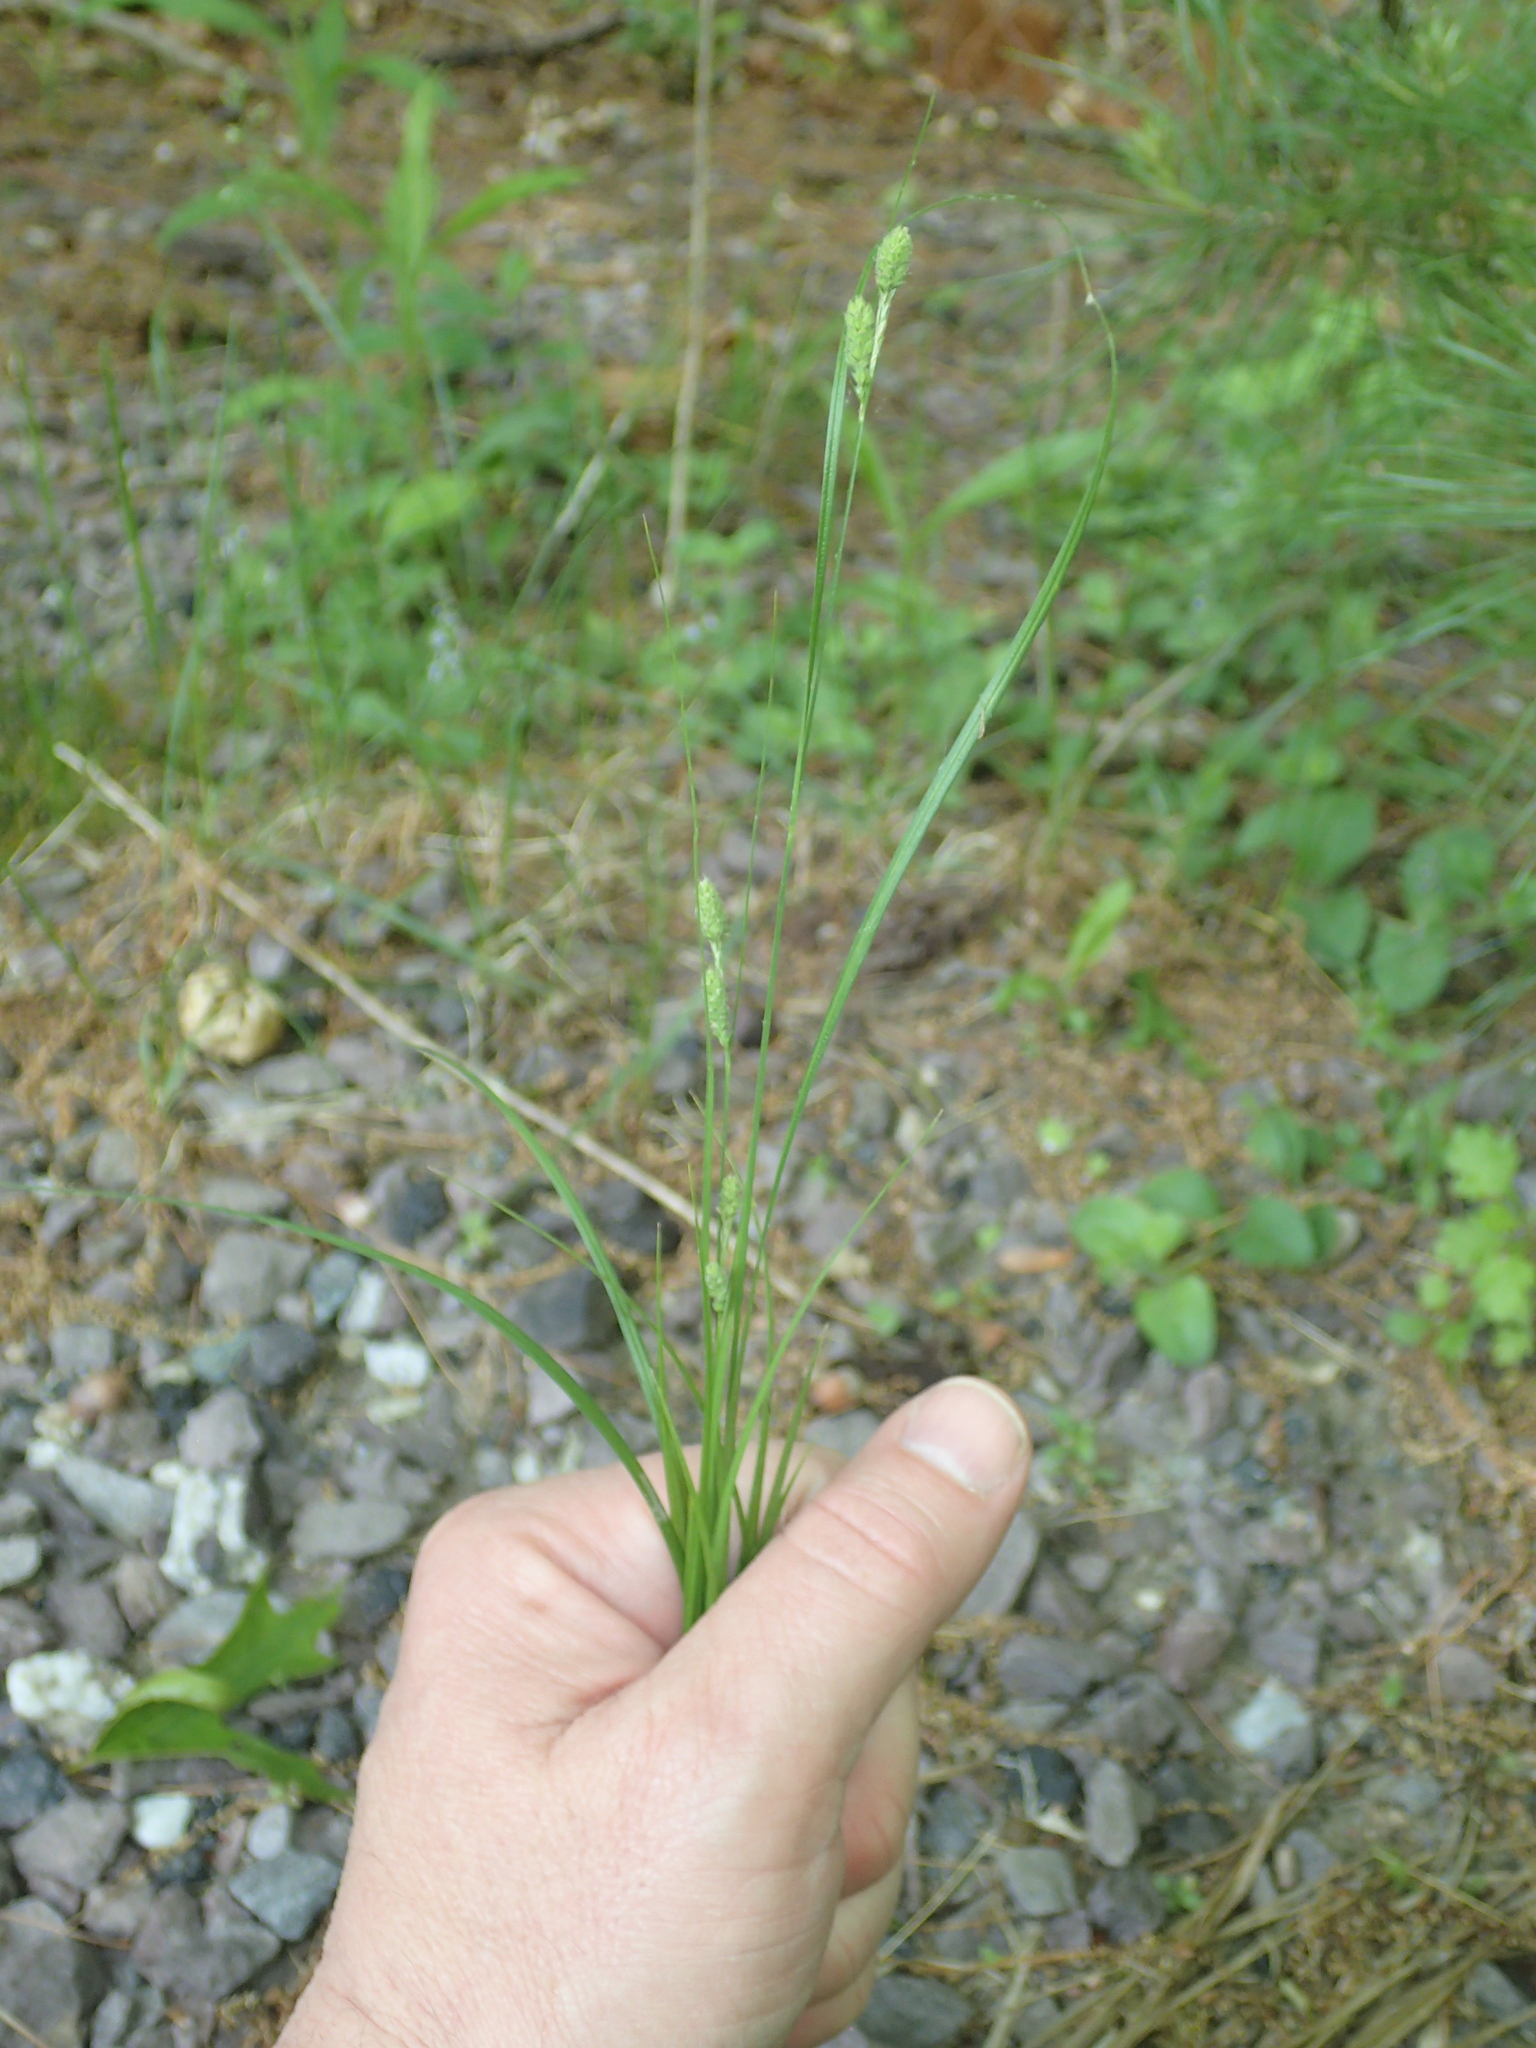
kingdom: Plantae
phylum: Tracheophyta
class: Liliopsida
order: Poales
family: Cyperaceae
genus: Carex
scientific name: Carex swanii
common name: Downy green sedge
